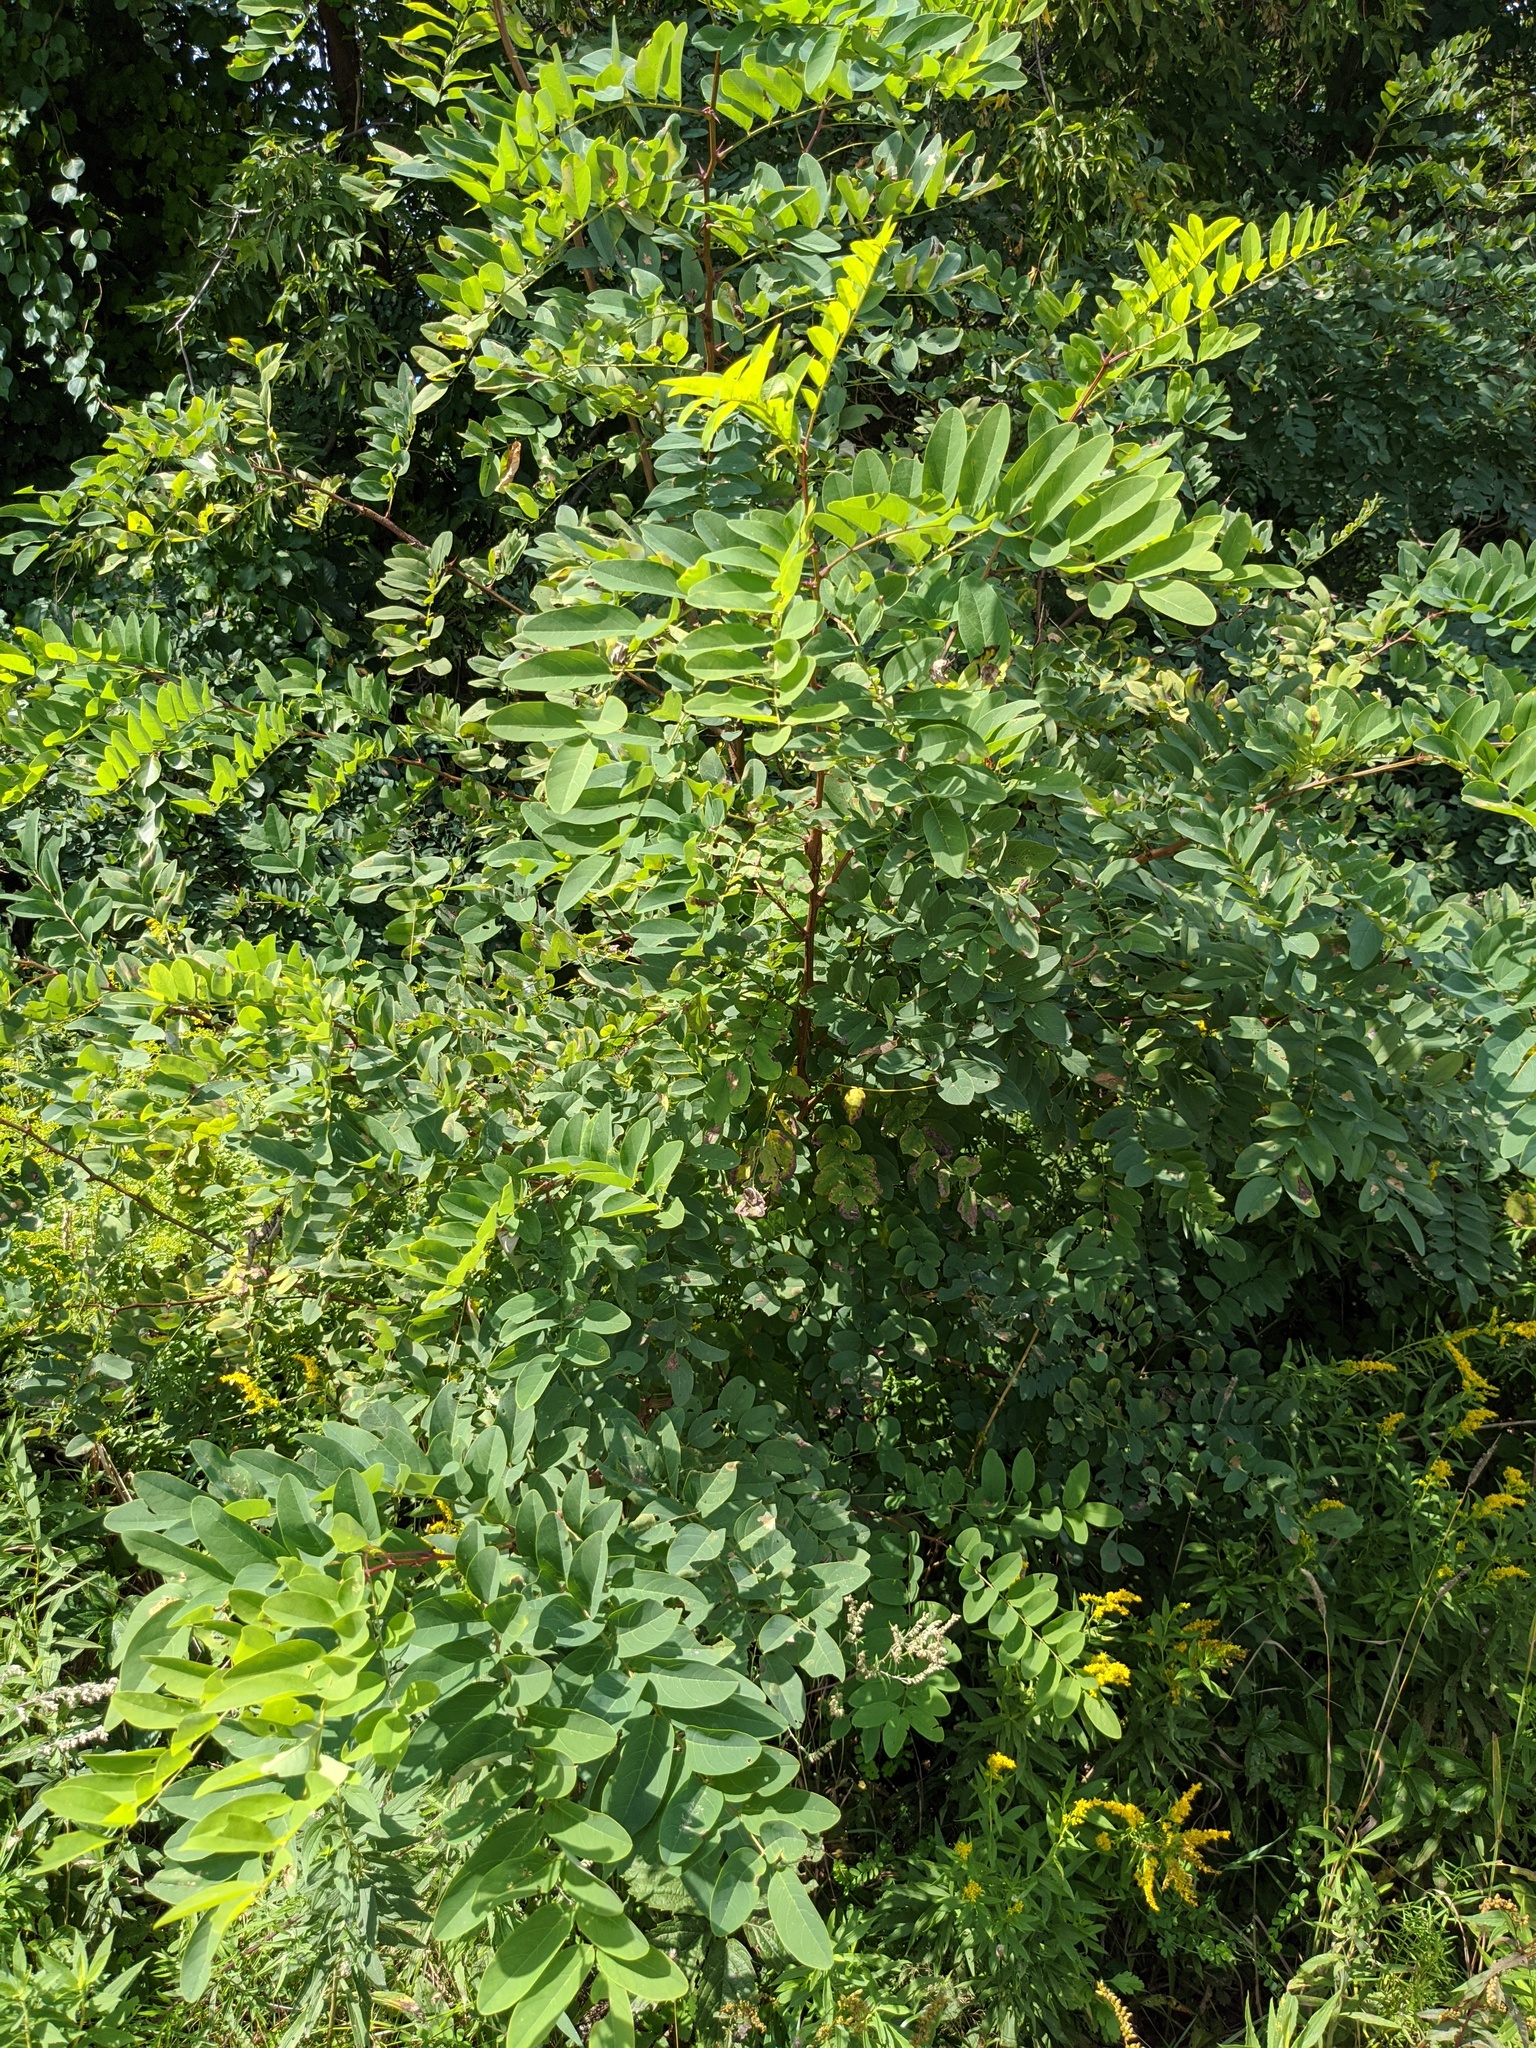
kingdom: Plantae
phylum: Tracheophyta
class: Magnoliopsida
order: Fabales
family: Fabaceae
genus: Robinia
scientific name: Robinia pseudoacacia
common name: Black locust
